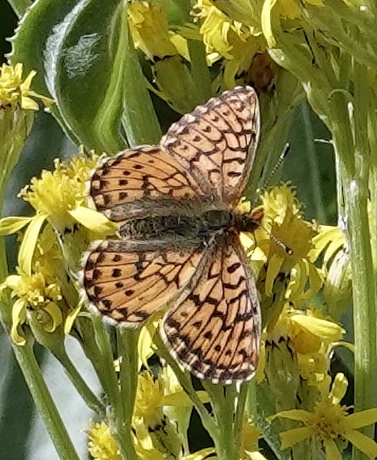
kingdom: Animalia
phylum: Arthropoda
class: Insecta
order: Lepidoptera
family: Nymphalidae
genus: Boloria
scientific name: Boloria chariclea
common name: Arctic fritillary
